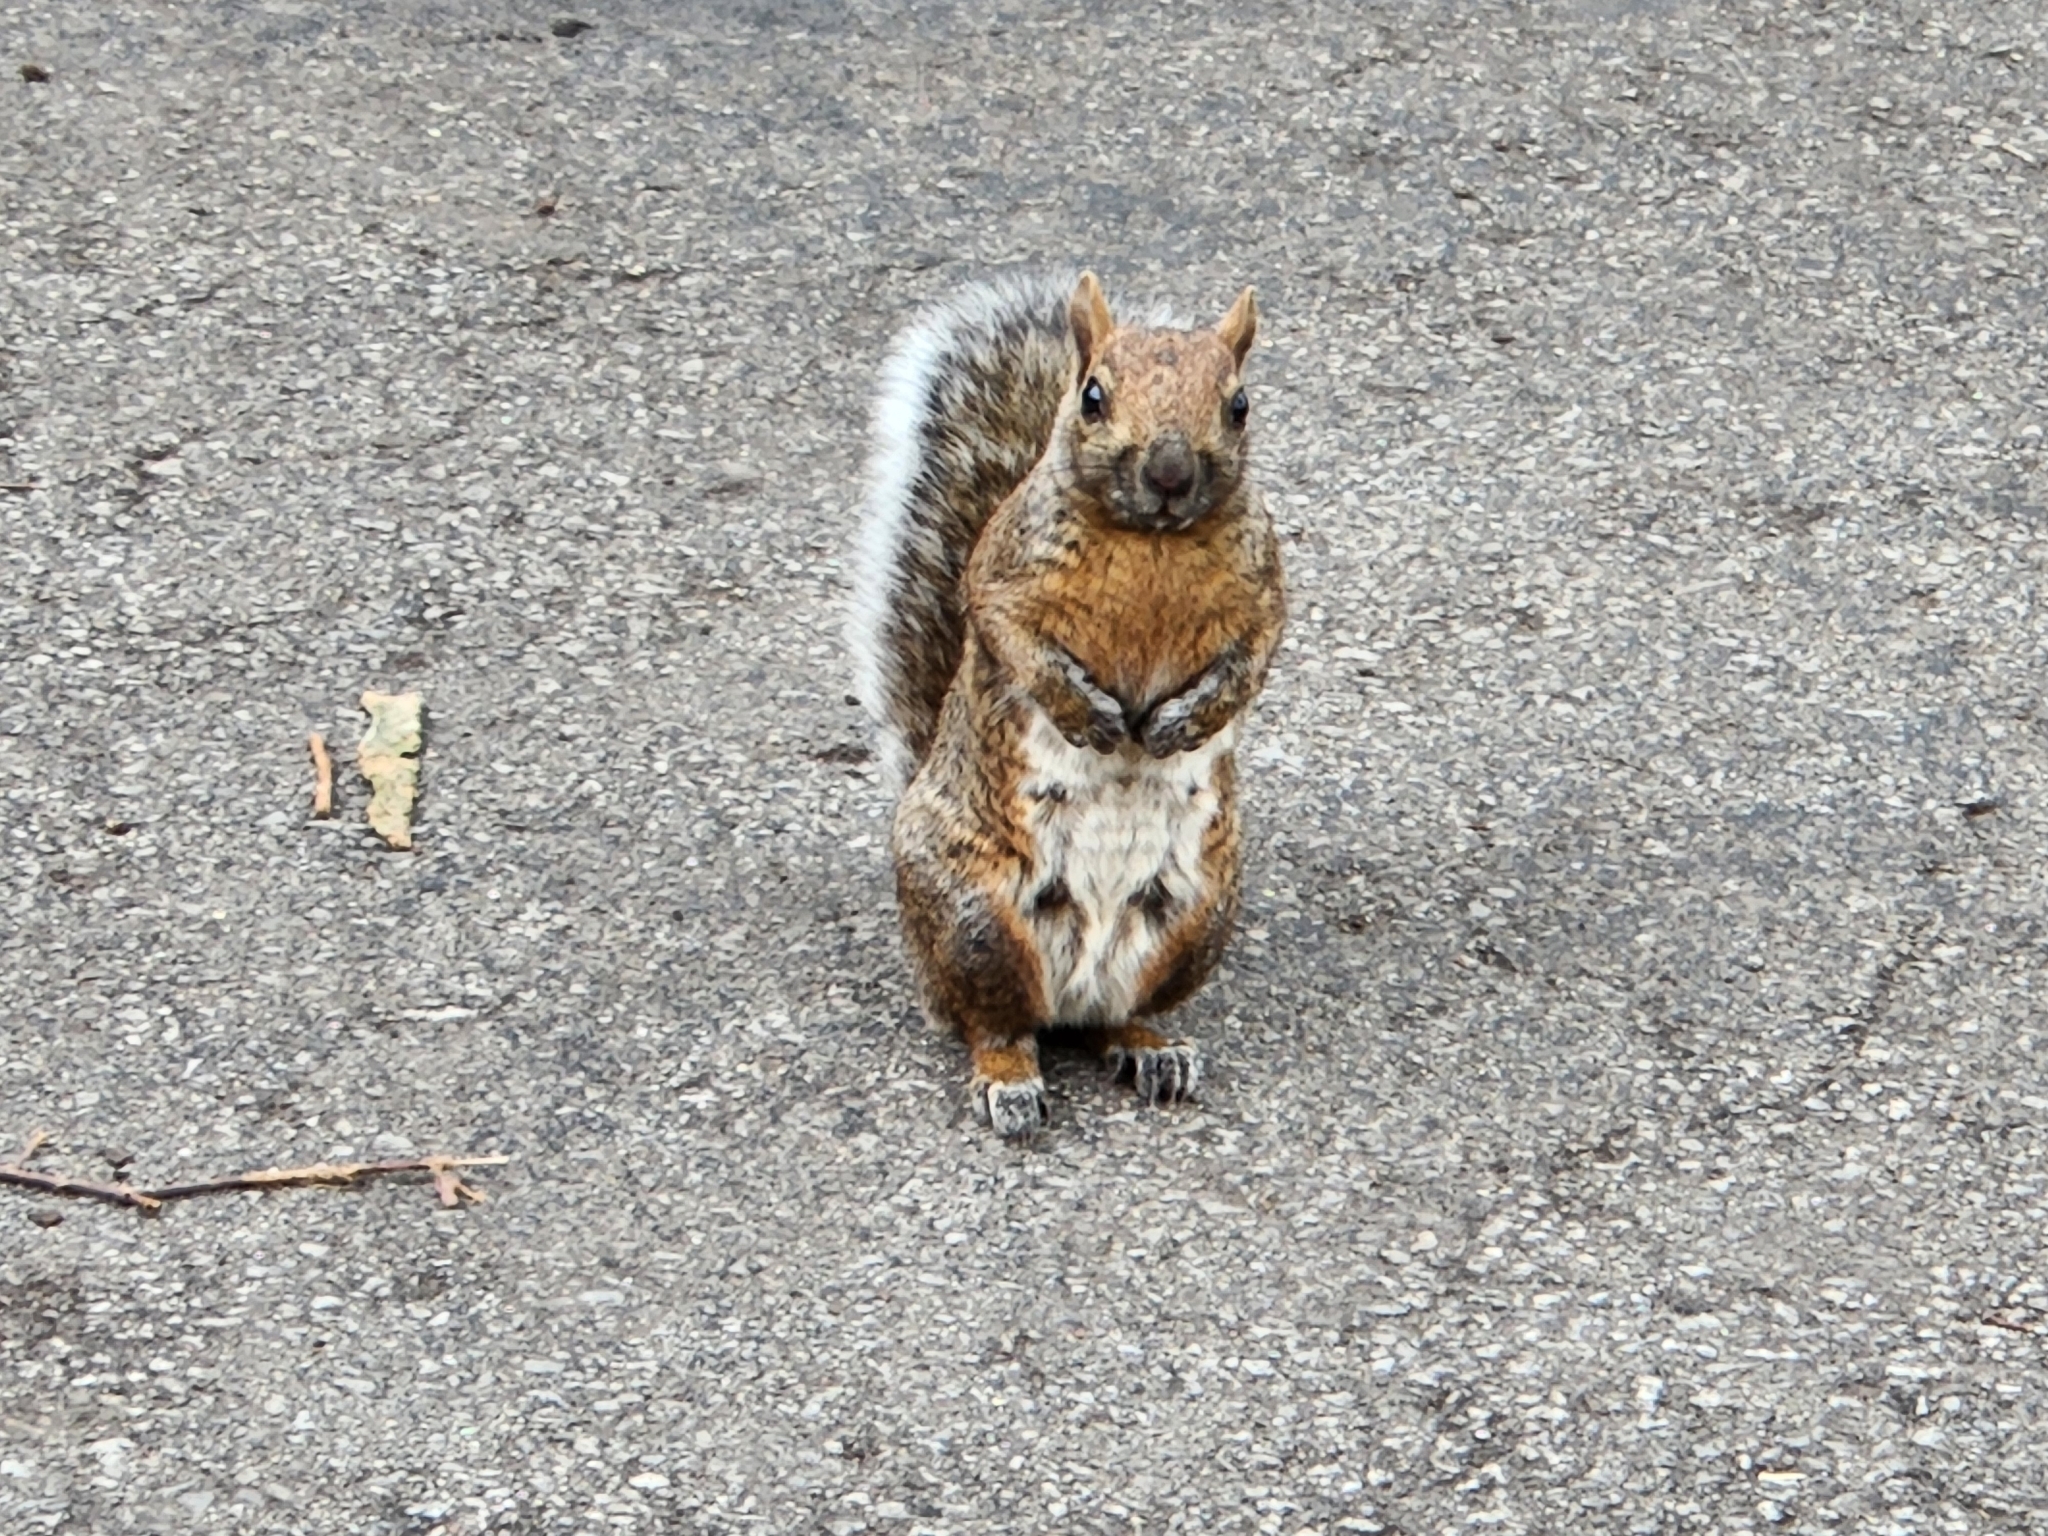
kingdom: Animalia
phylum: Chordata
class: Mammalia
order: Rodentia
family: Sciuridae
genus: Sciurus
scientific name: Sciurus carolinensis
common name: Eastern gray squirrel
